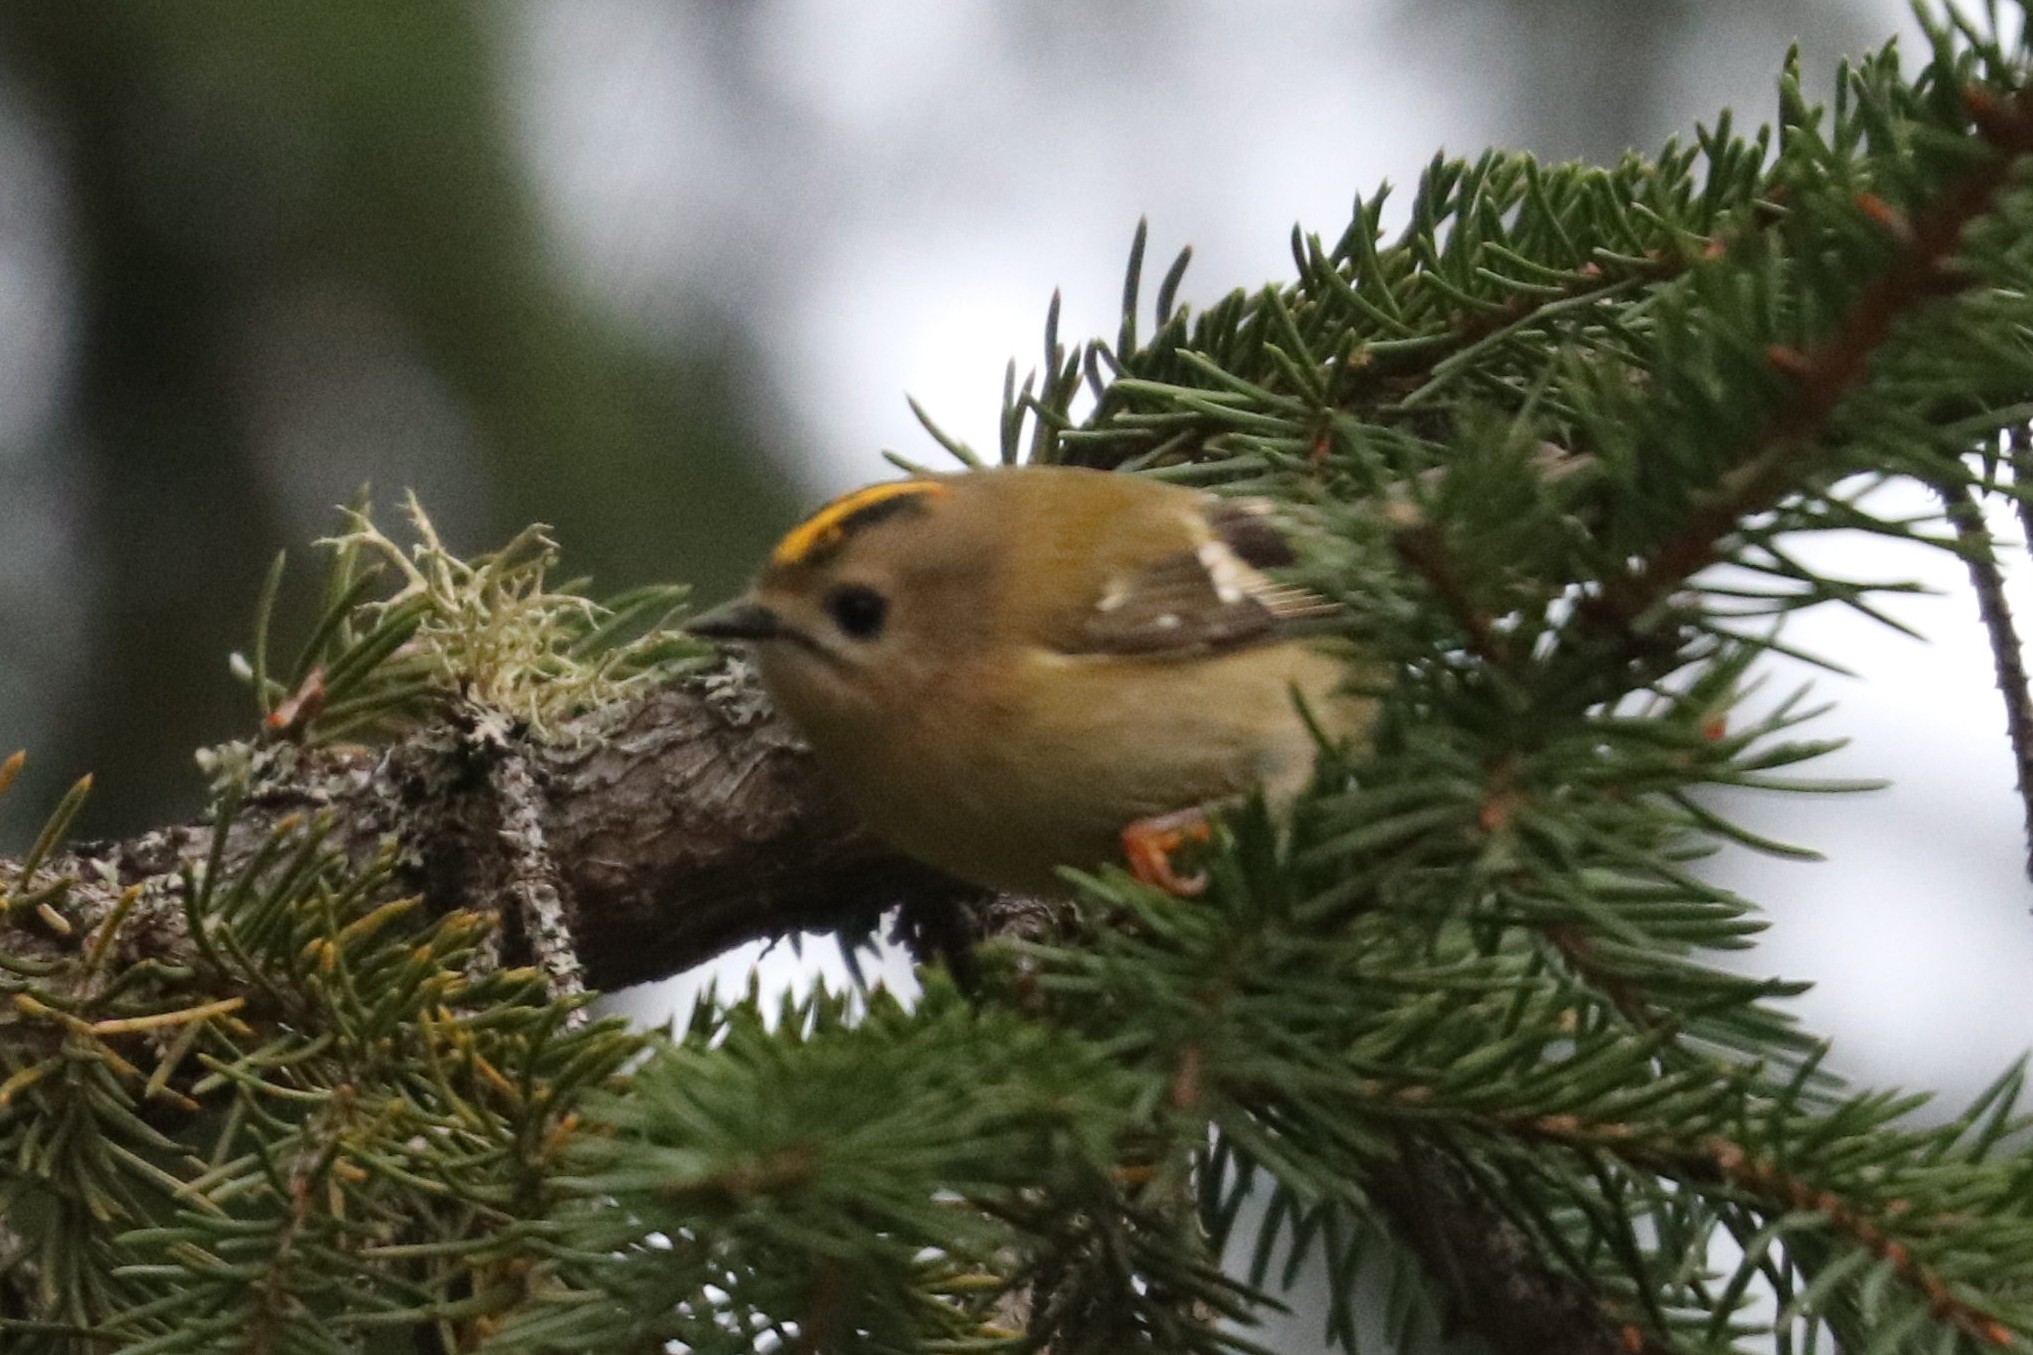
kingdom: Animalia
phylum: Chordata
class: Aves
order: Passeriformes
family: Regulidae
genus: Regulus
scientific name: Regulus regulus
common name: Goldcrest
